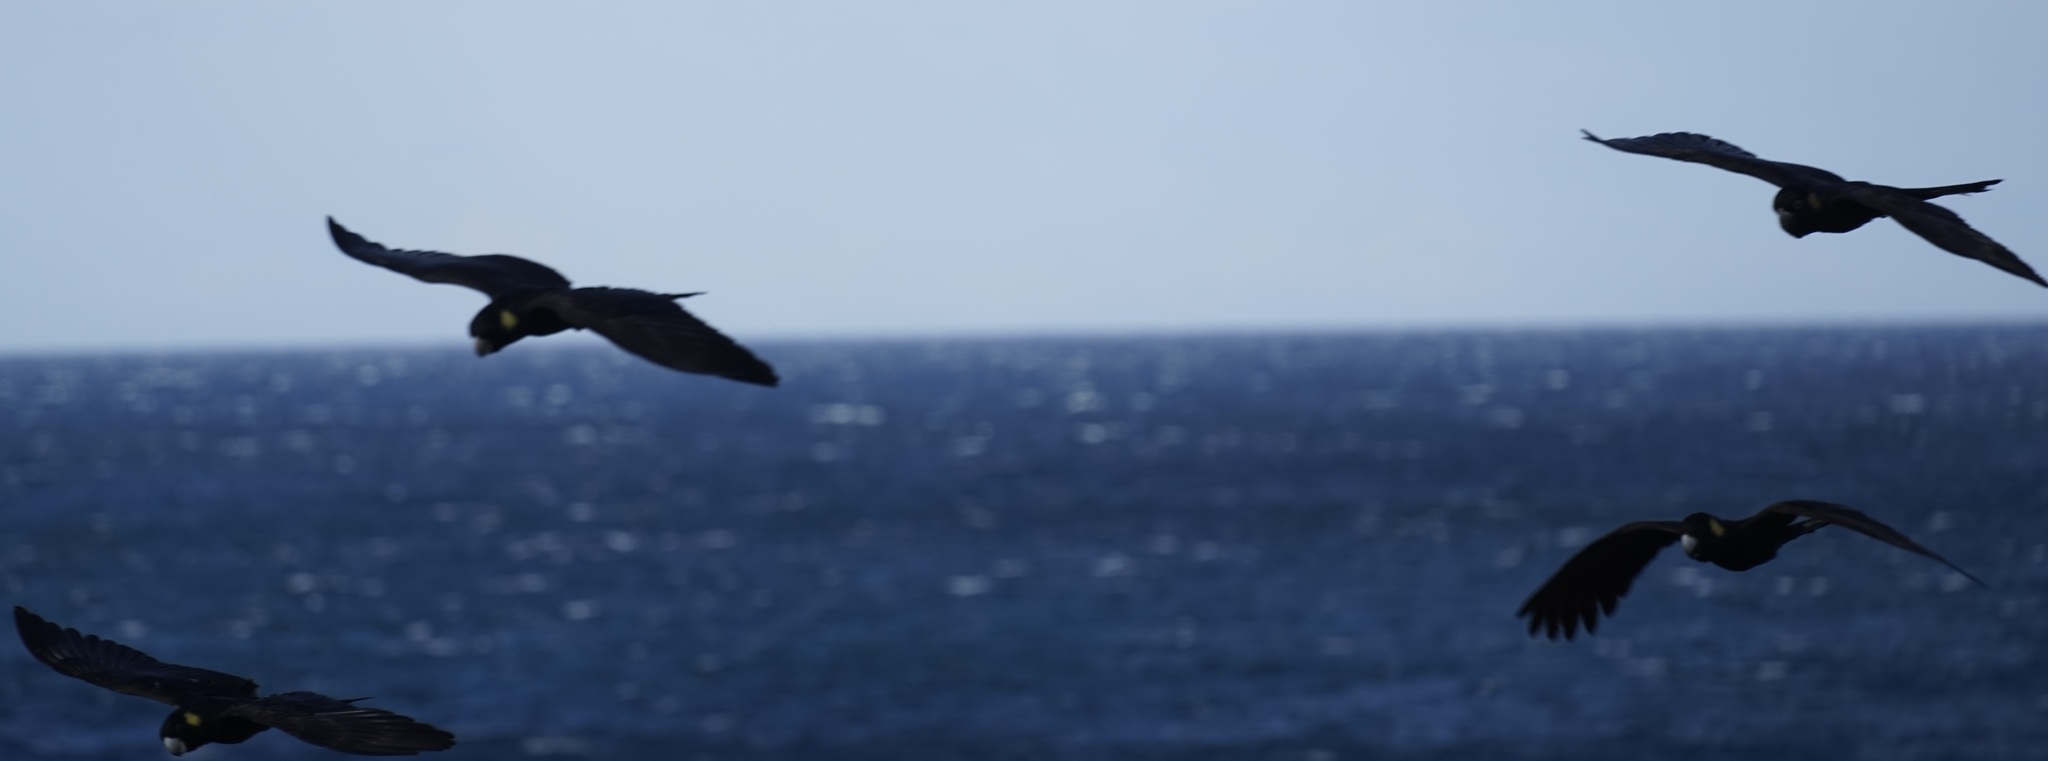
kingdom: Animalia
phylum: Chordata
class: Aves
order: Psittaciformes
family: Cacatuidae
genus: Zanda
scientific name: Zanda funerea
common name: Yellow-tailed black-cockatoo
